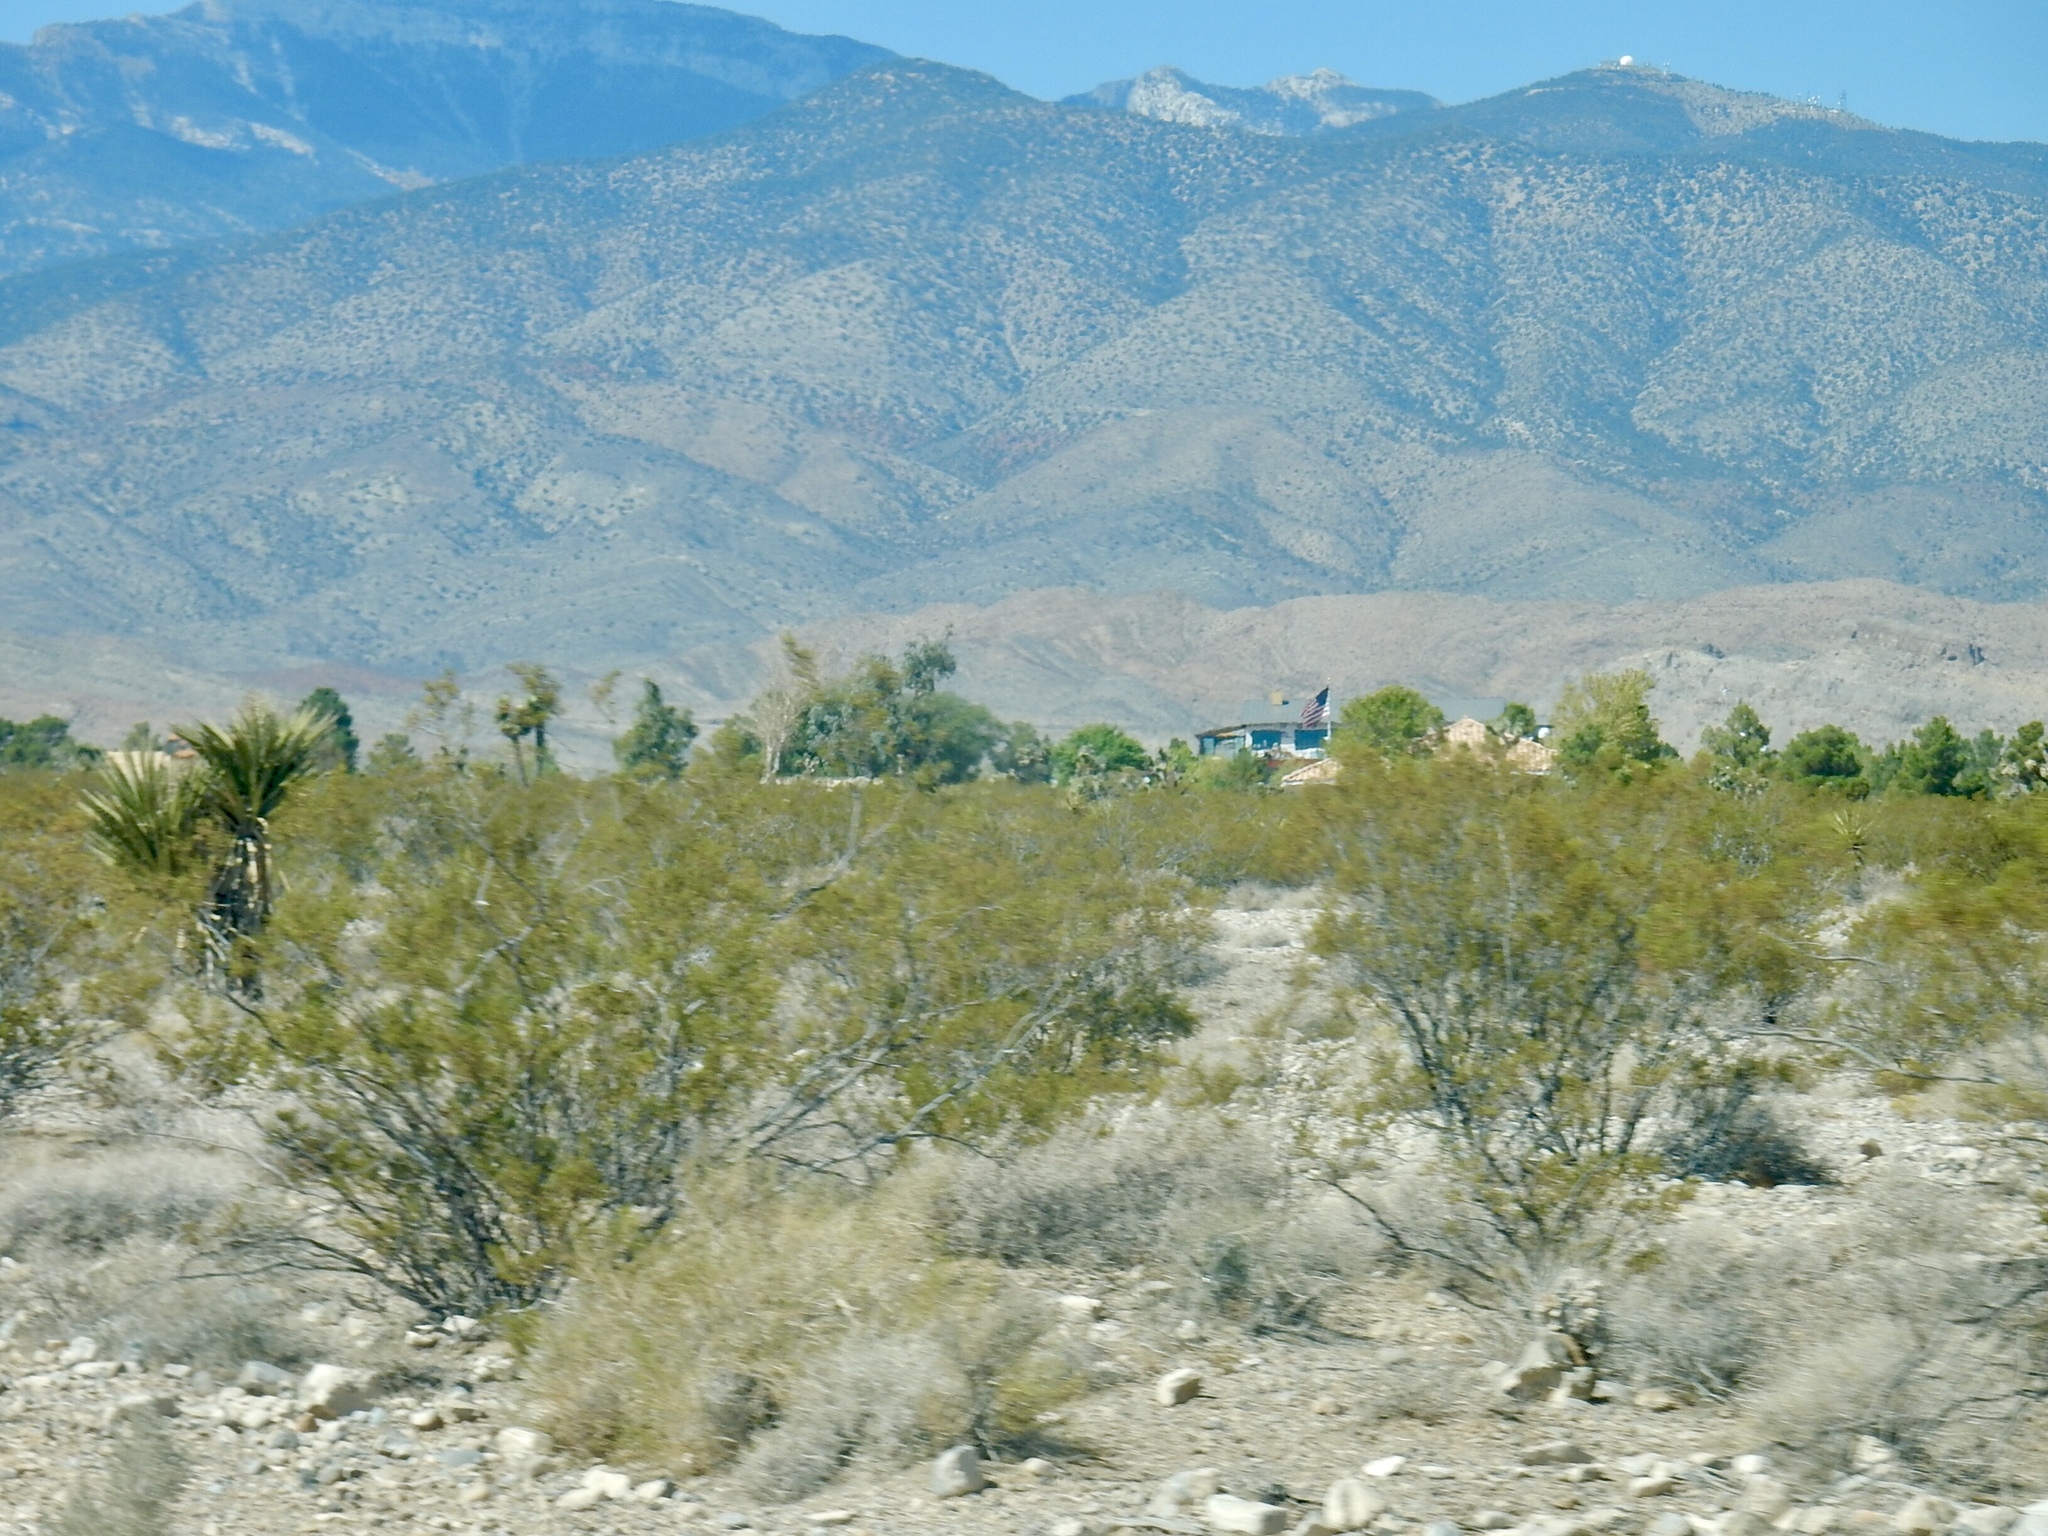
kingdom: Plantae
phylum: Tracheophyta
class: Magnoliopsida
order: Zygophyllales
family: Zygophyllaceae
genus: Larrea
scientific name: Larrea tridentata
